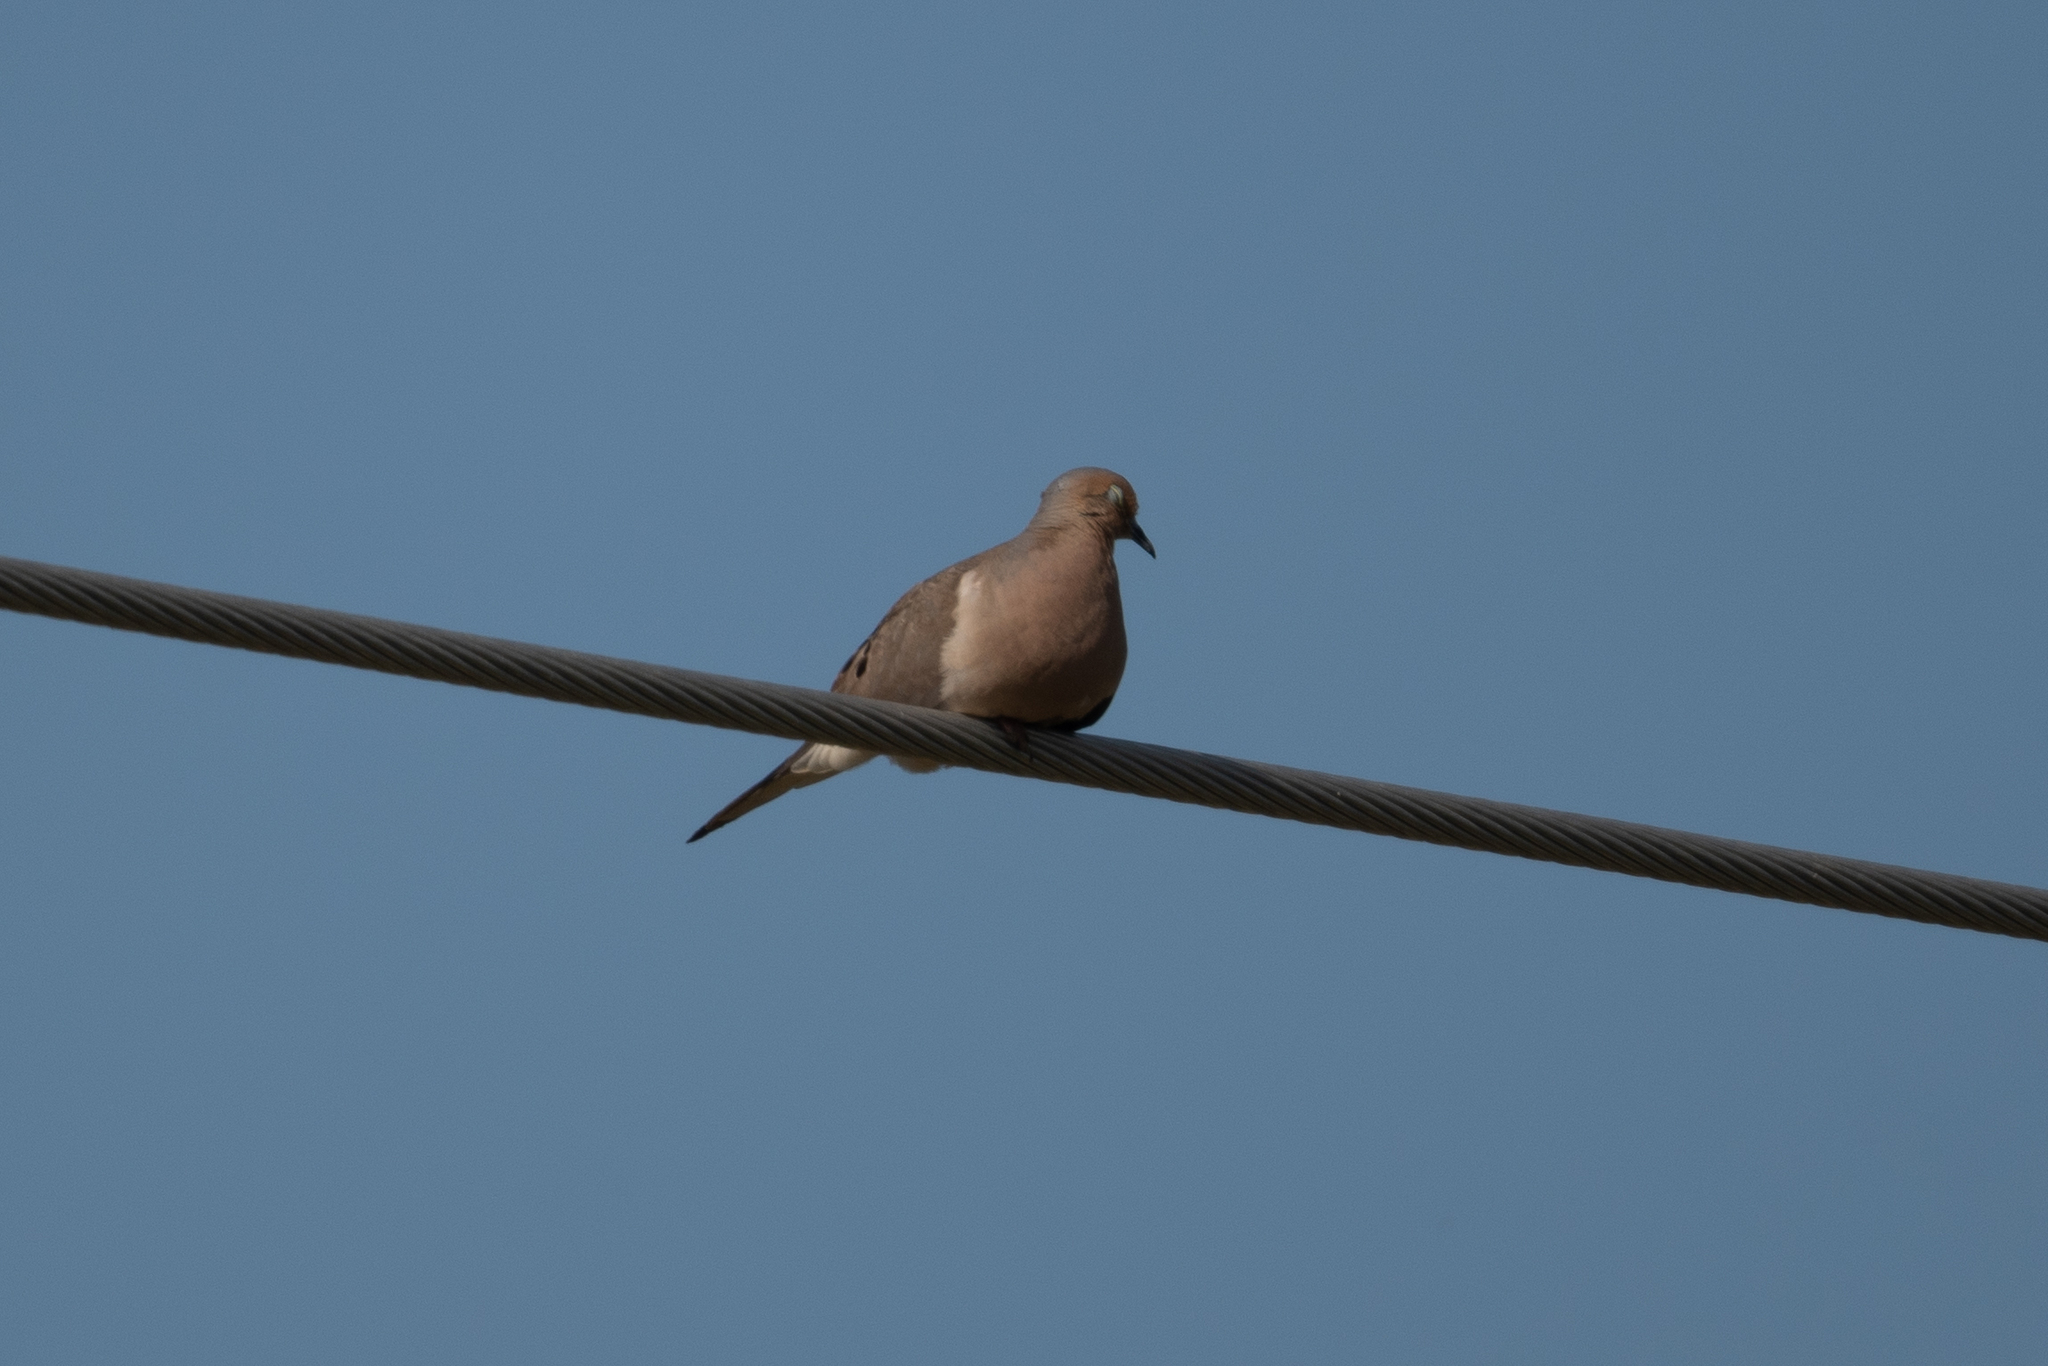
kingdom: Animalia
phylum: Chordata
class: Aves
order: Columbiformes
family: Columbidae
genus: Zenaida
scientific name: Zenaida macroura
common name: Mourning dove
